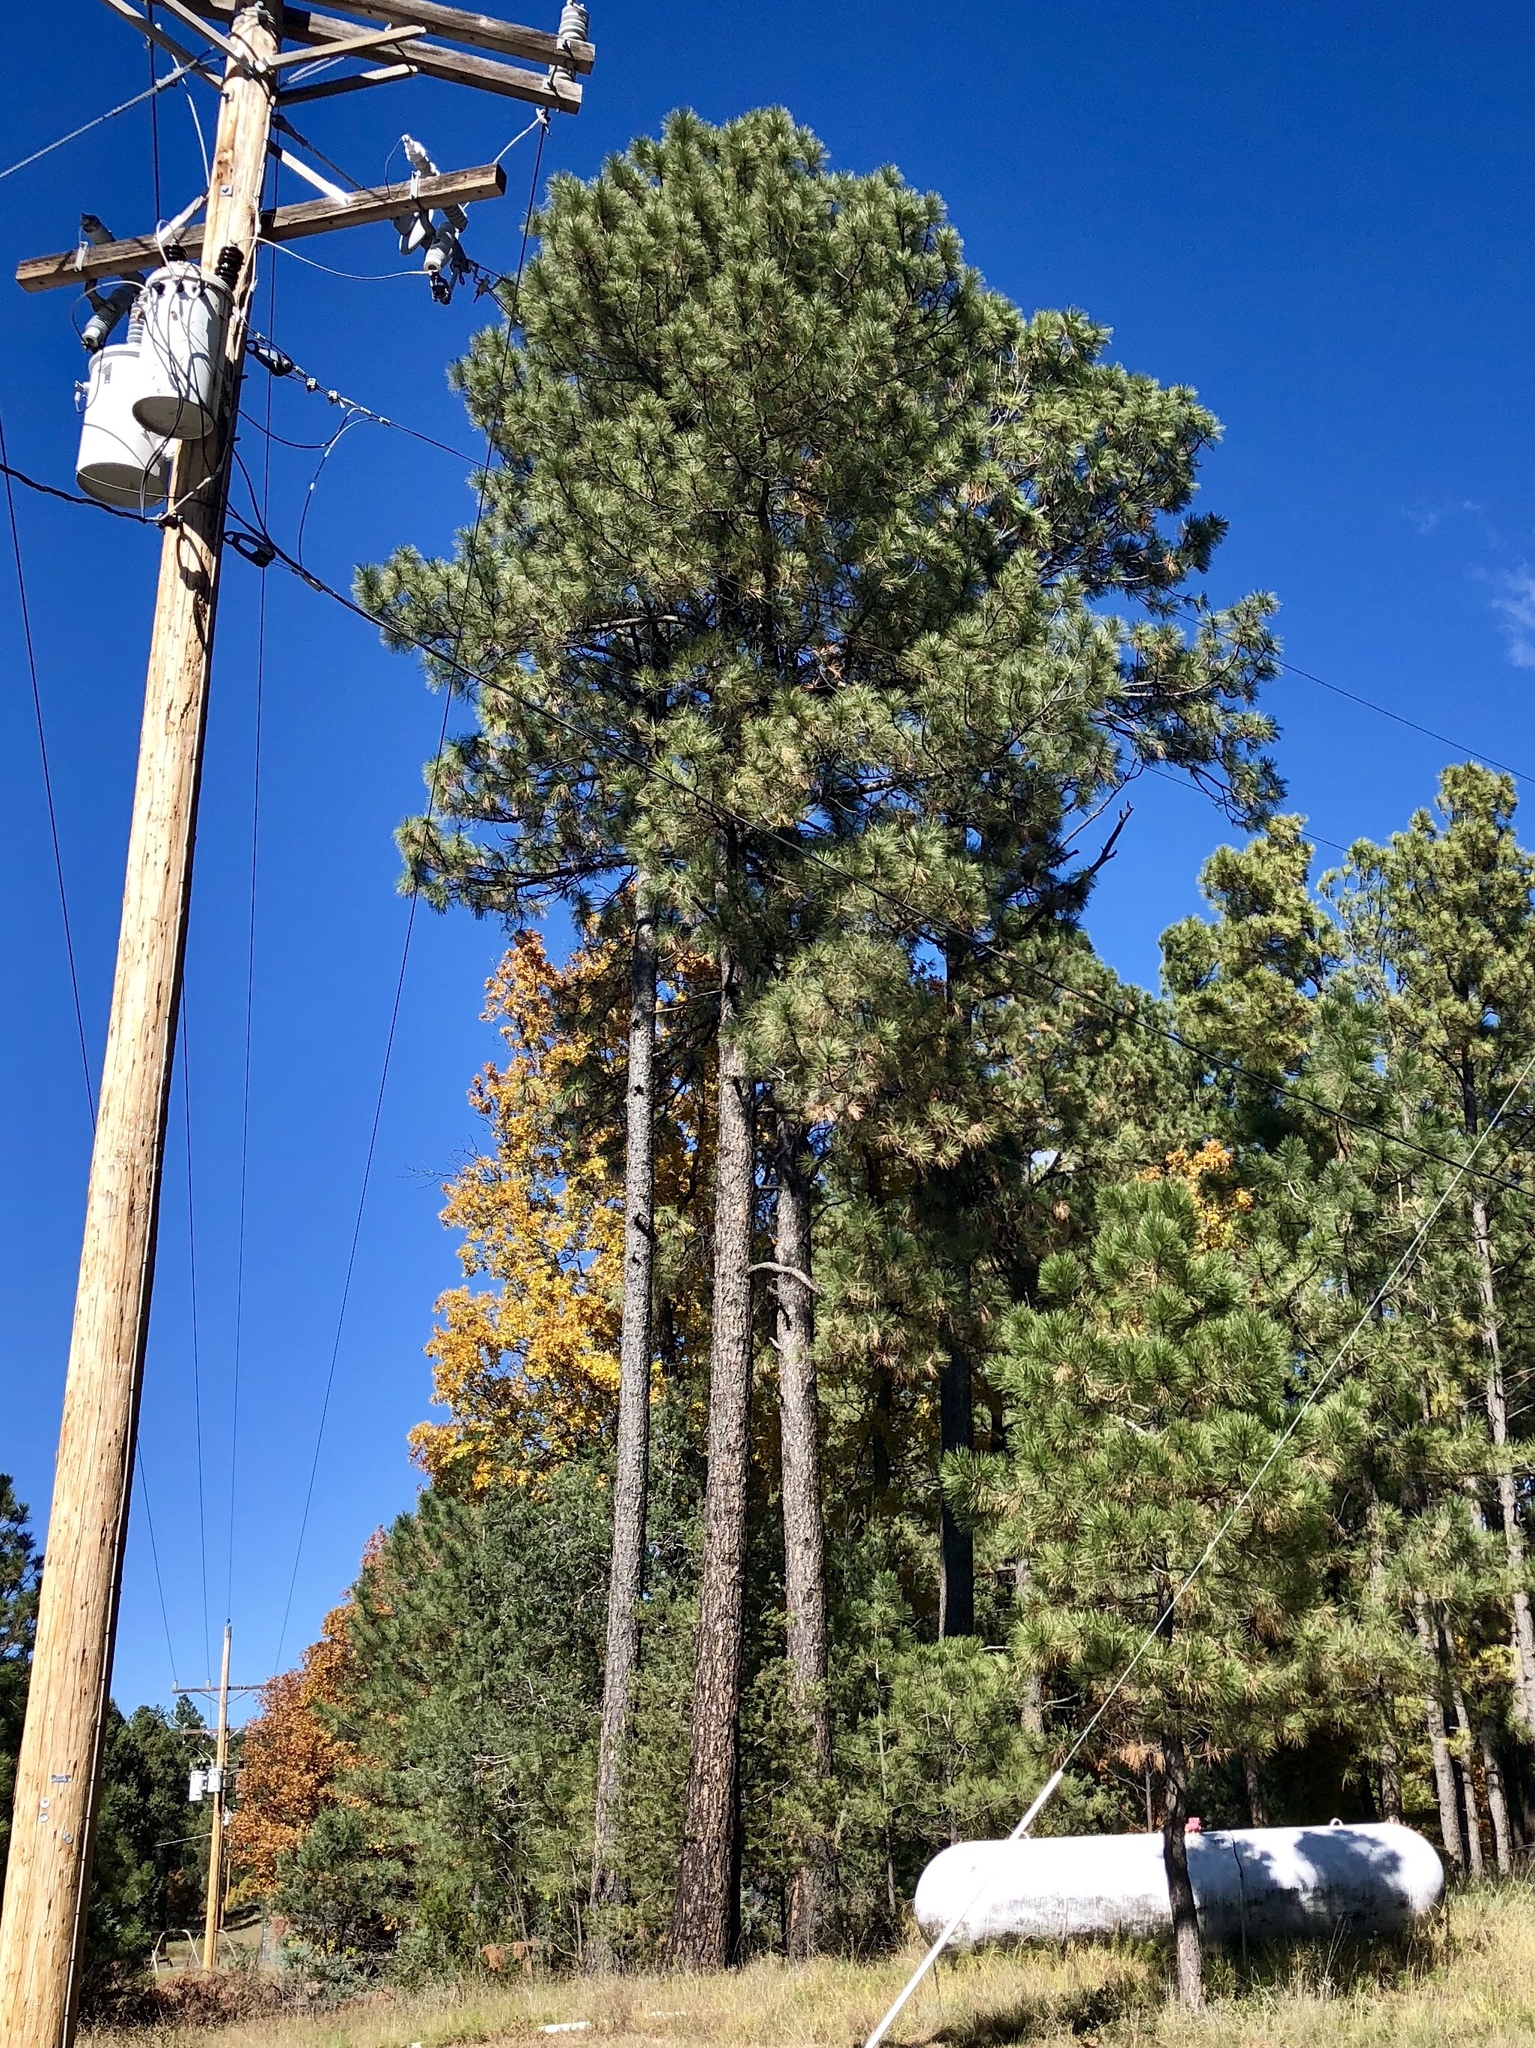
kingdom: Plantae
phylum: Tracheophyta
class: Pinopsida
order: Pinales
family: Pinaceae
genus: Pinus
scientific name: Pinus ponderosa
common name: Western yellow-pine
